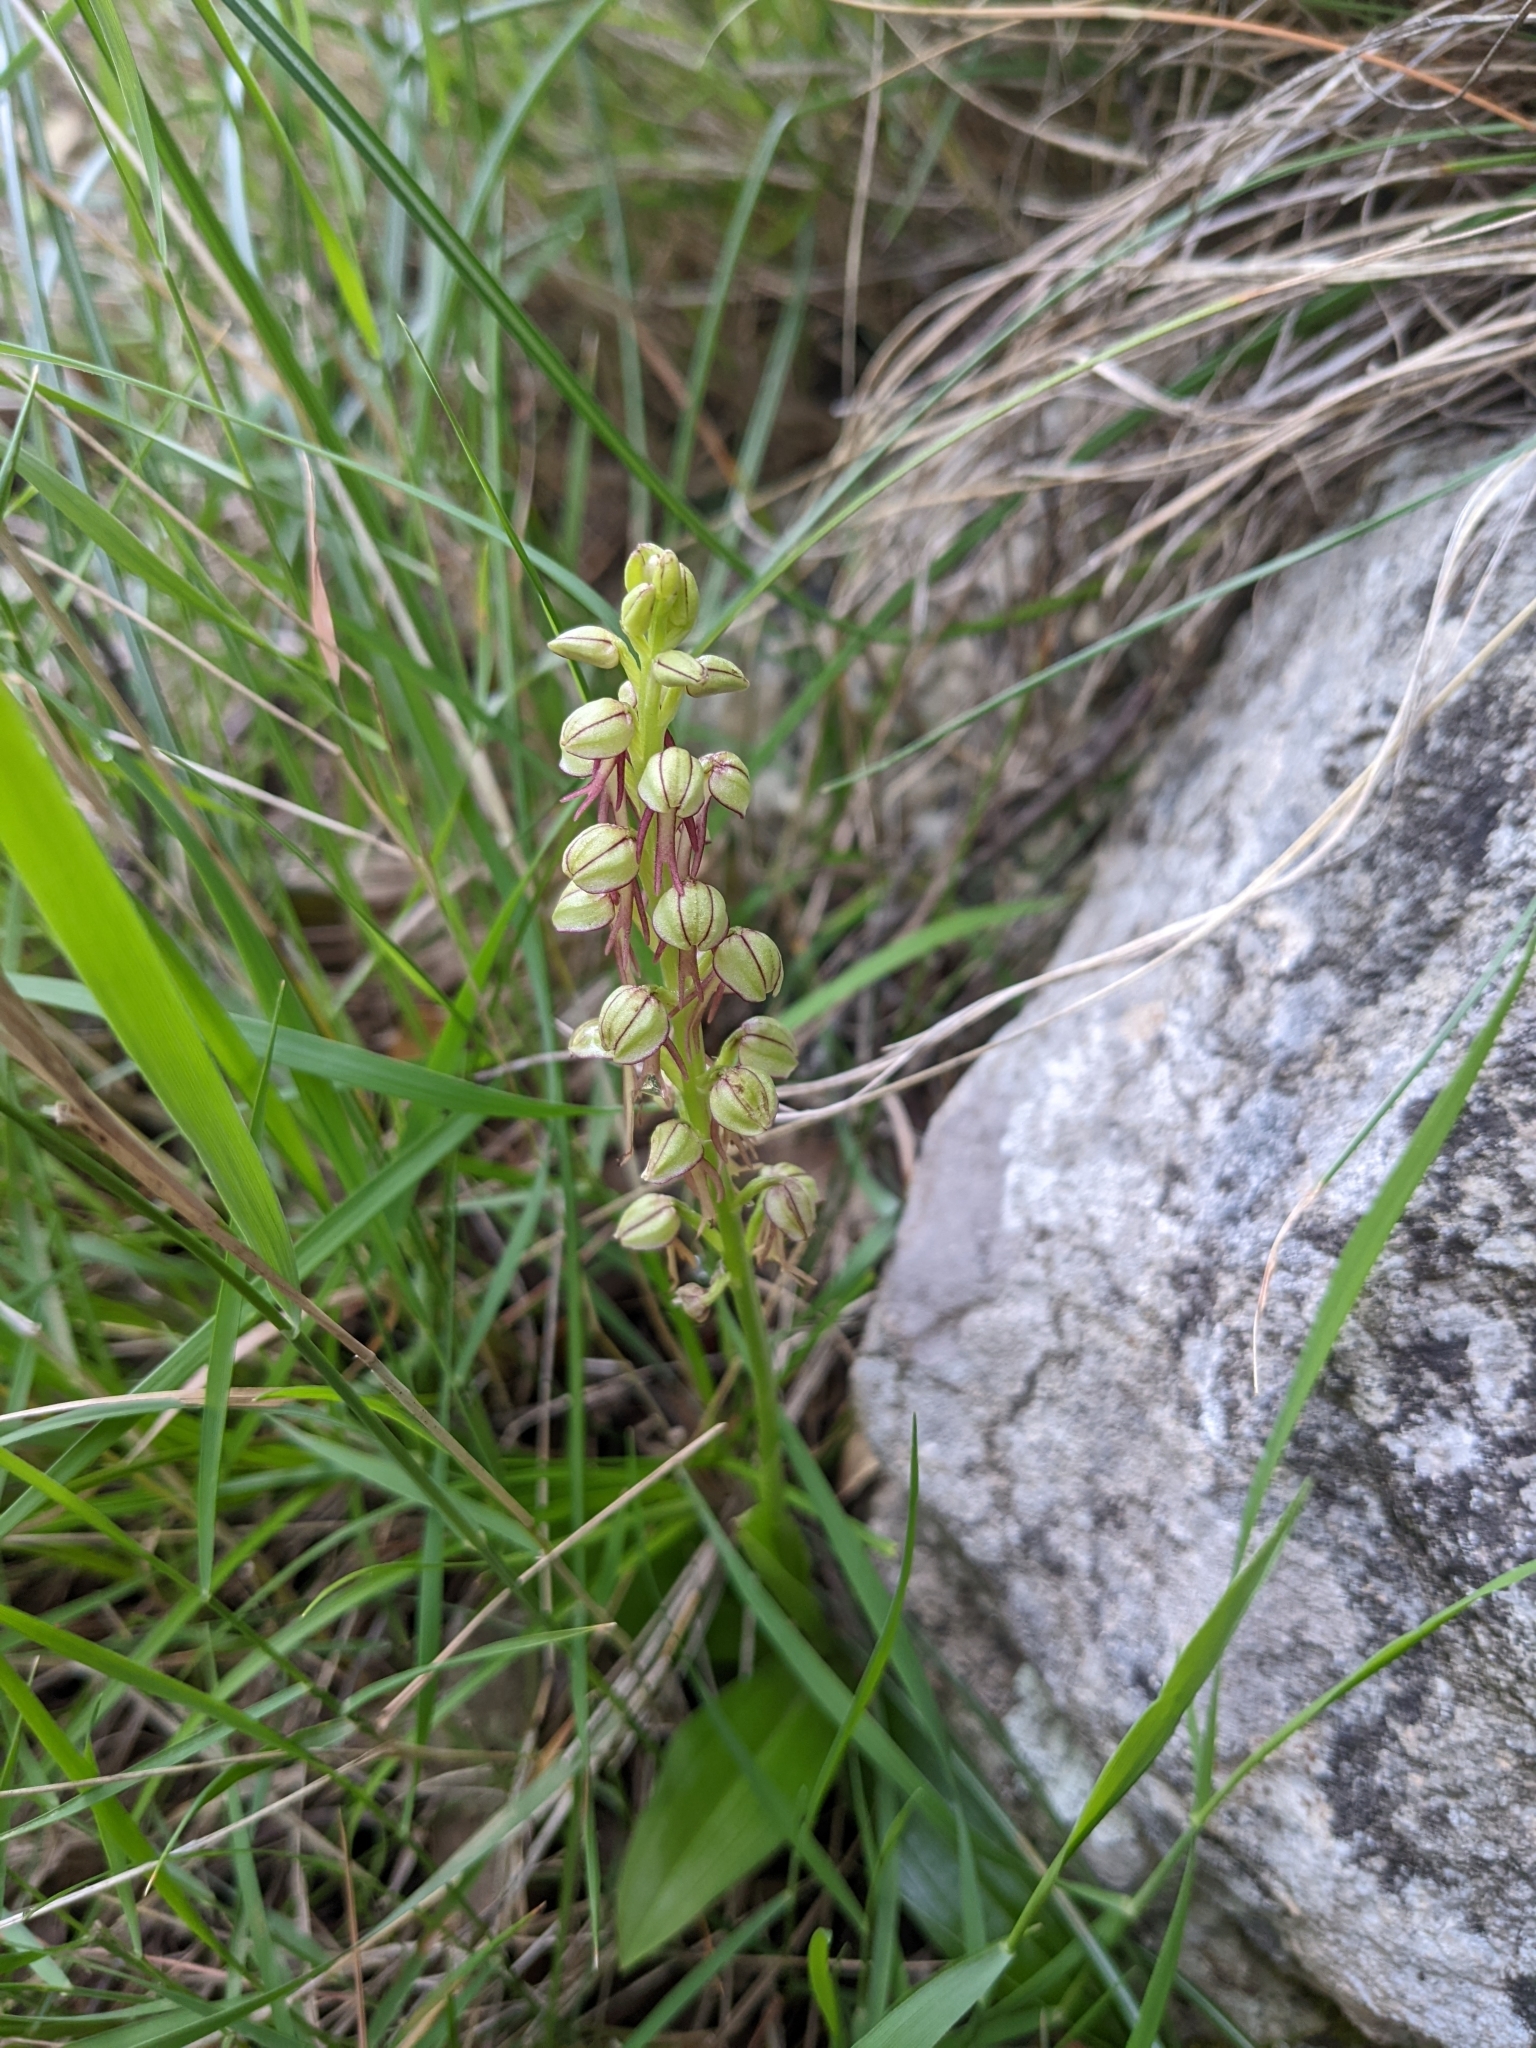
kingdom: Plantae
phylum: Tracheophyta
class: Liliopsida
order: Asparagales
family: Orchidaceae
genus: Orchis
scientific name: Orchis anthropophora
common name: Man orchid
